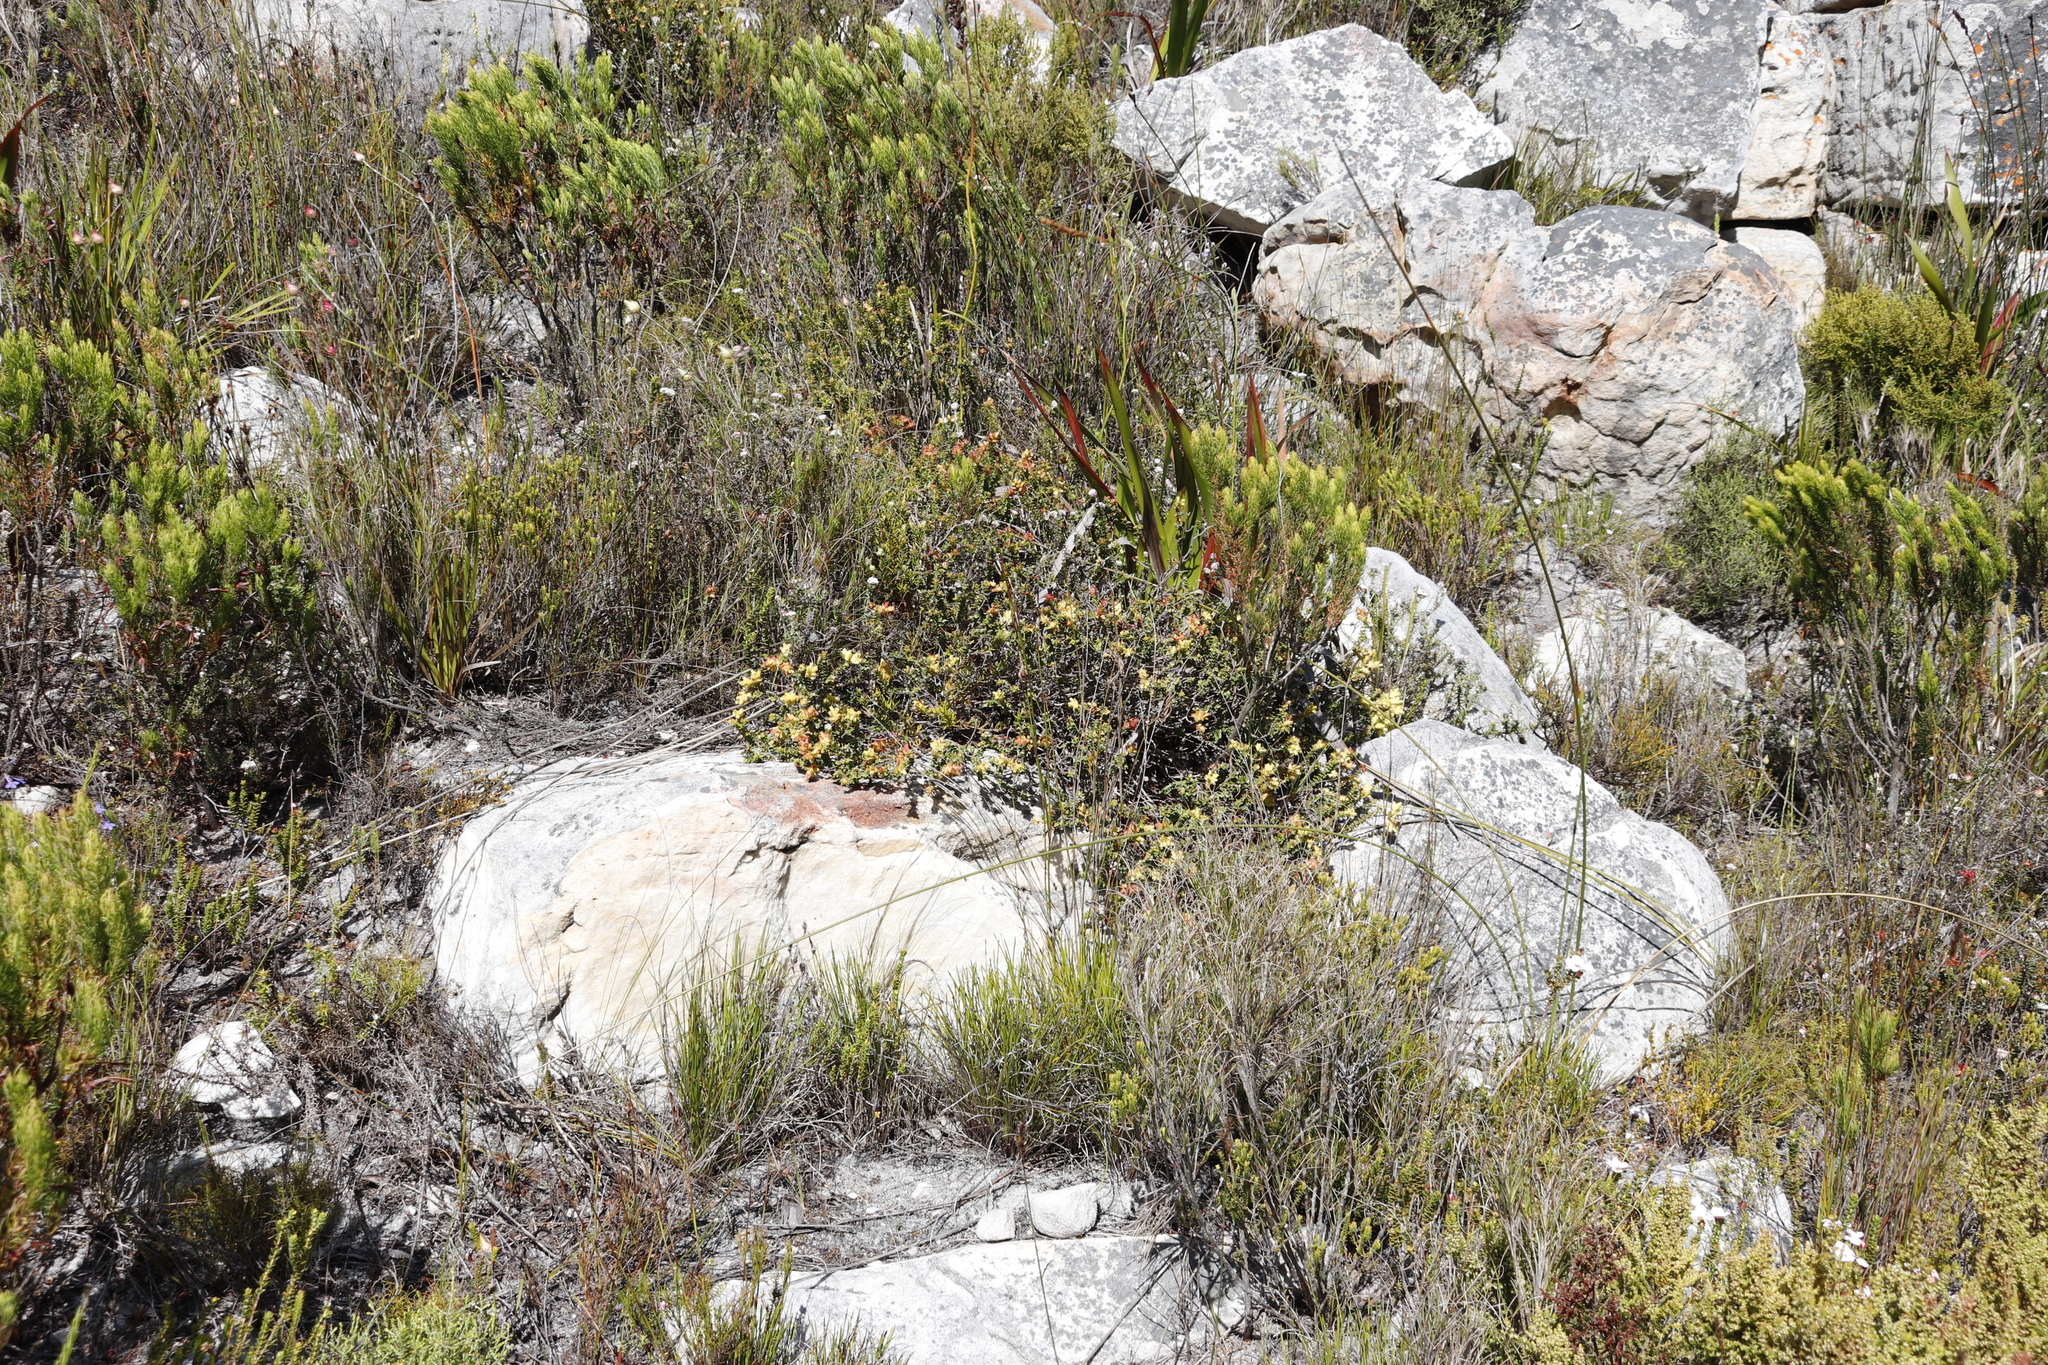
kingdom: Plantae
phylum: Tracheophyta
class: Magnoliopsida
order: Myrtales
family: Penaeaceae
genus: Penaea
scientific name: Penaea mucronata
